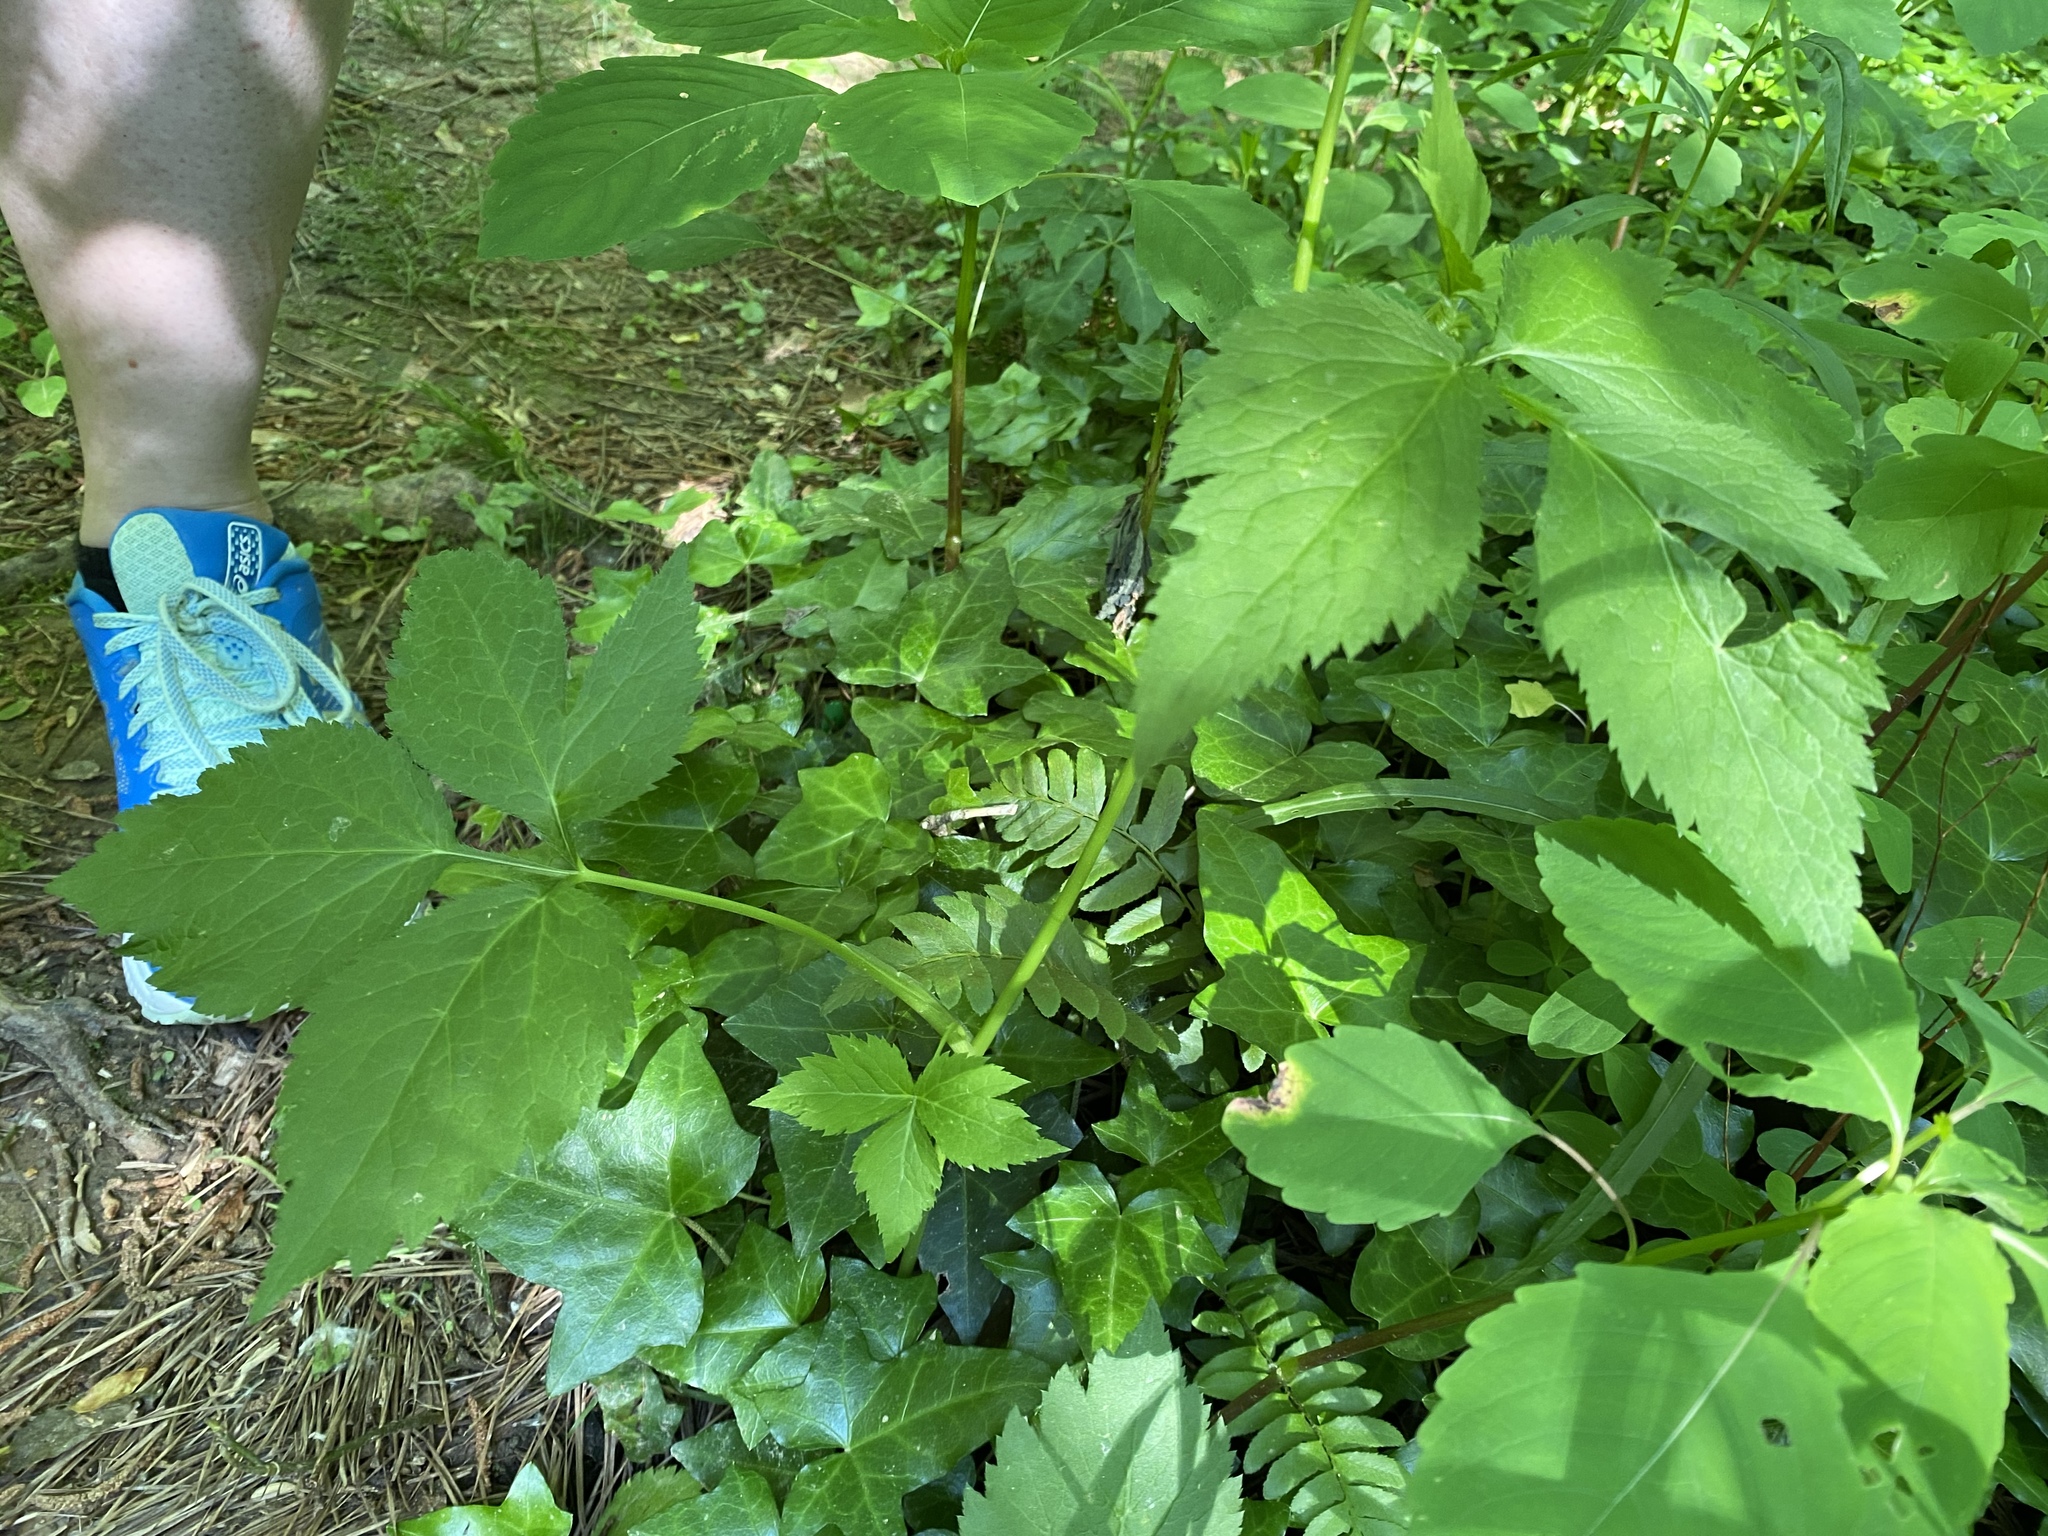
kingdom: Plantae
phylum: Tracheophyta
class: Magnoliopsida
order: Apiales
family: Apiaceae
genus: Cryptotaenia
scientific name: Cryptotaenia canadensis
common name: Honewort
